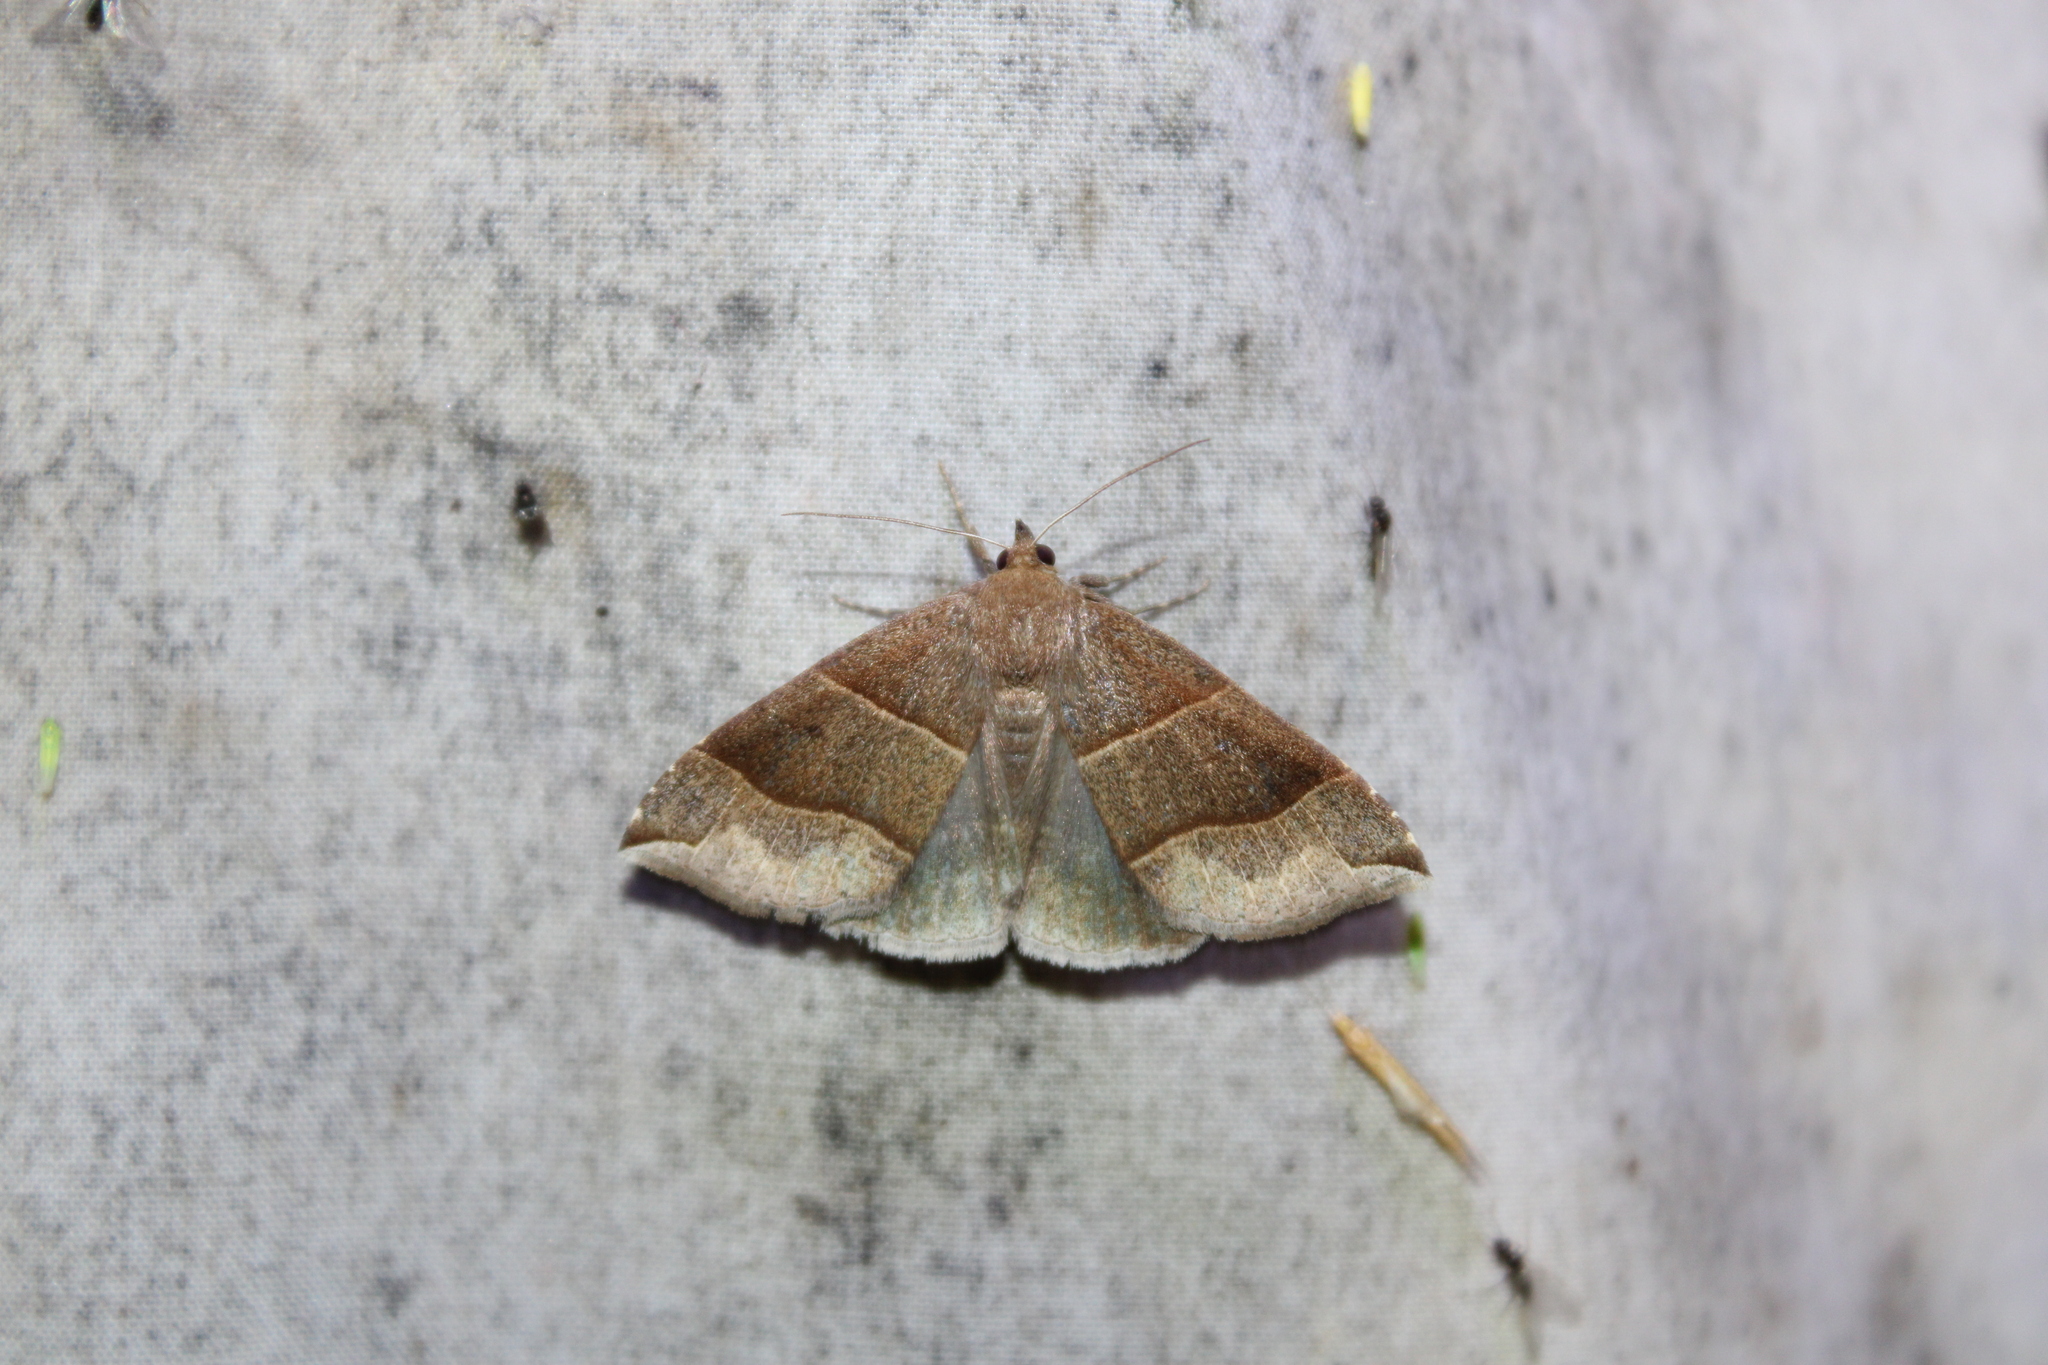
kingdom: Animalia
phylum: Arthropoda
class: Insecta
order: Lepidoptera
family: Erebidae
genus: Parallelia
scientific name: Parallelia bistriaris
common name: Maple looper moth
